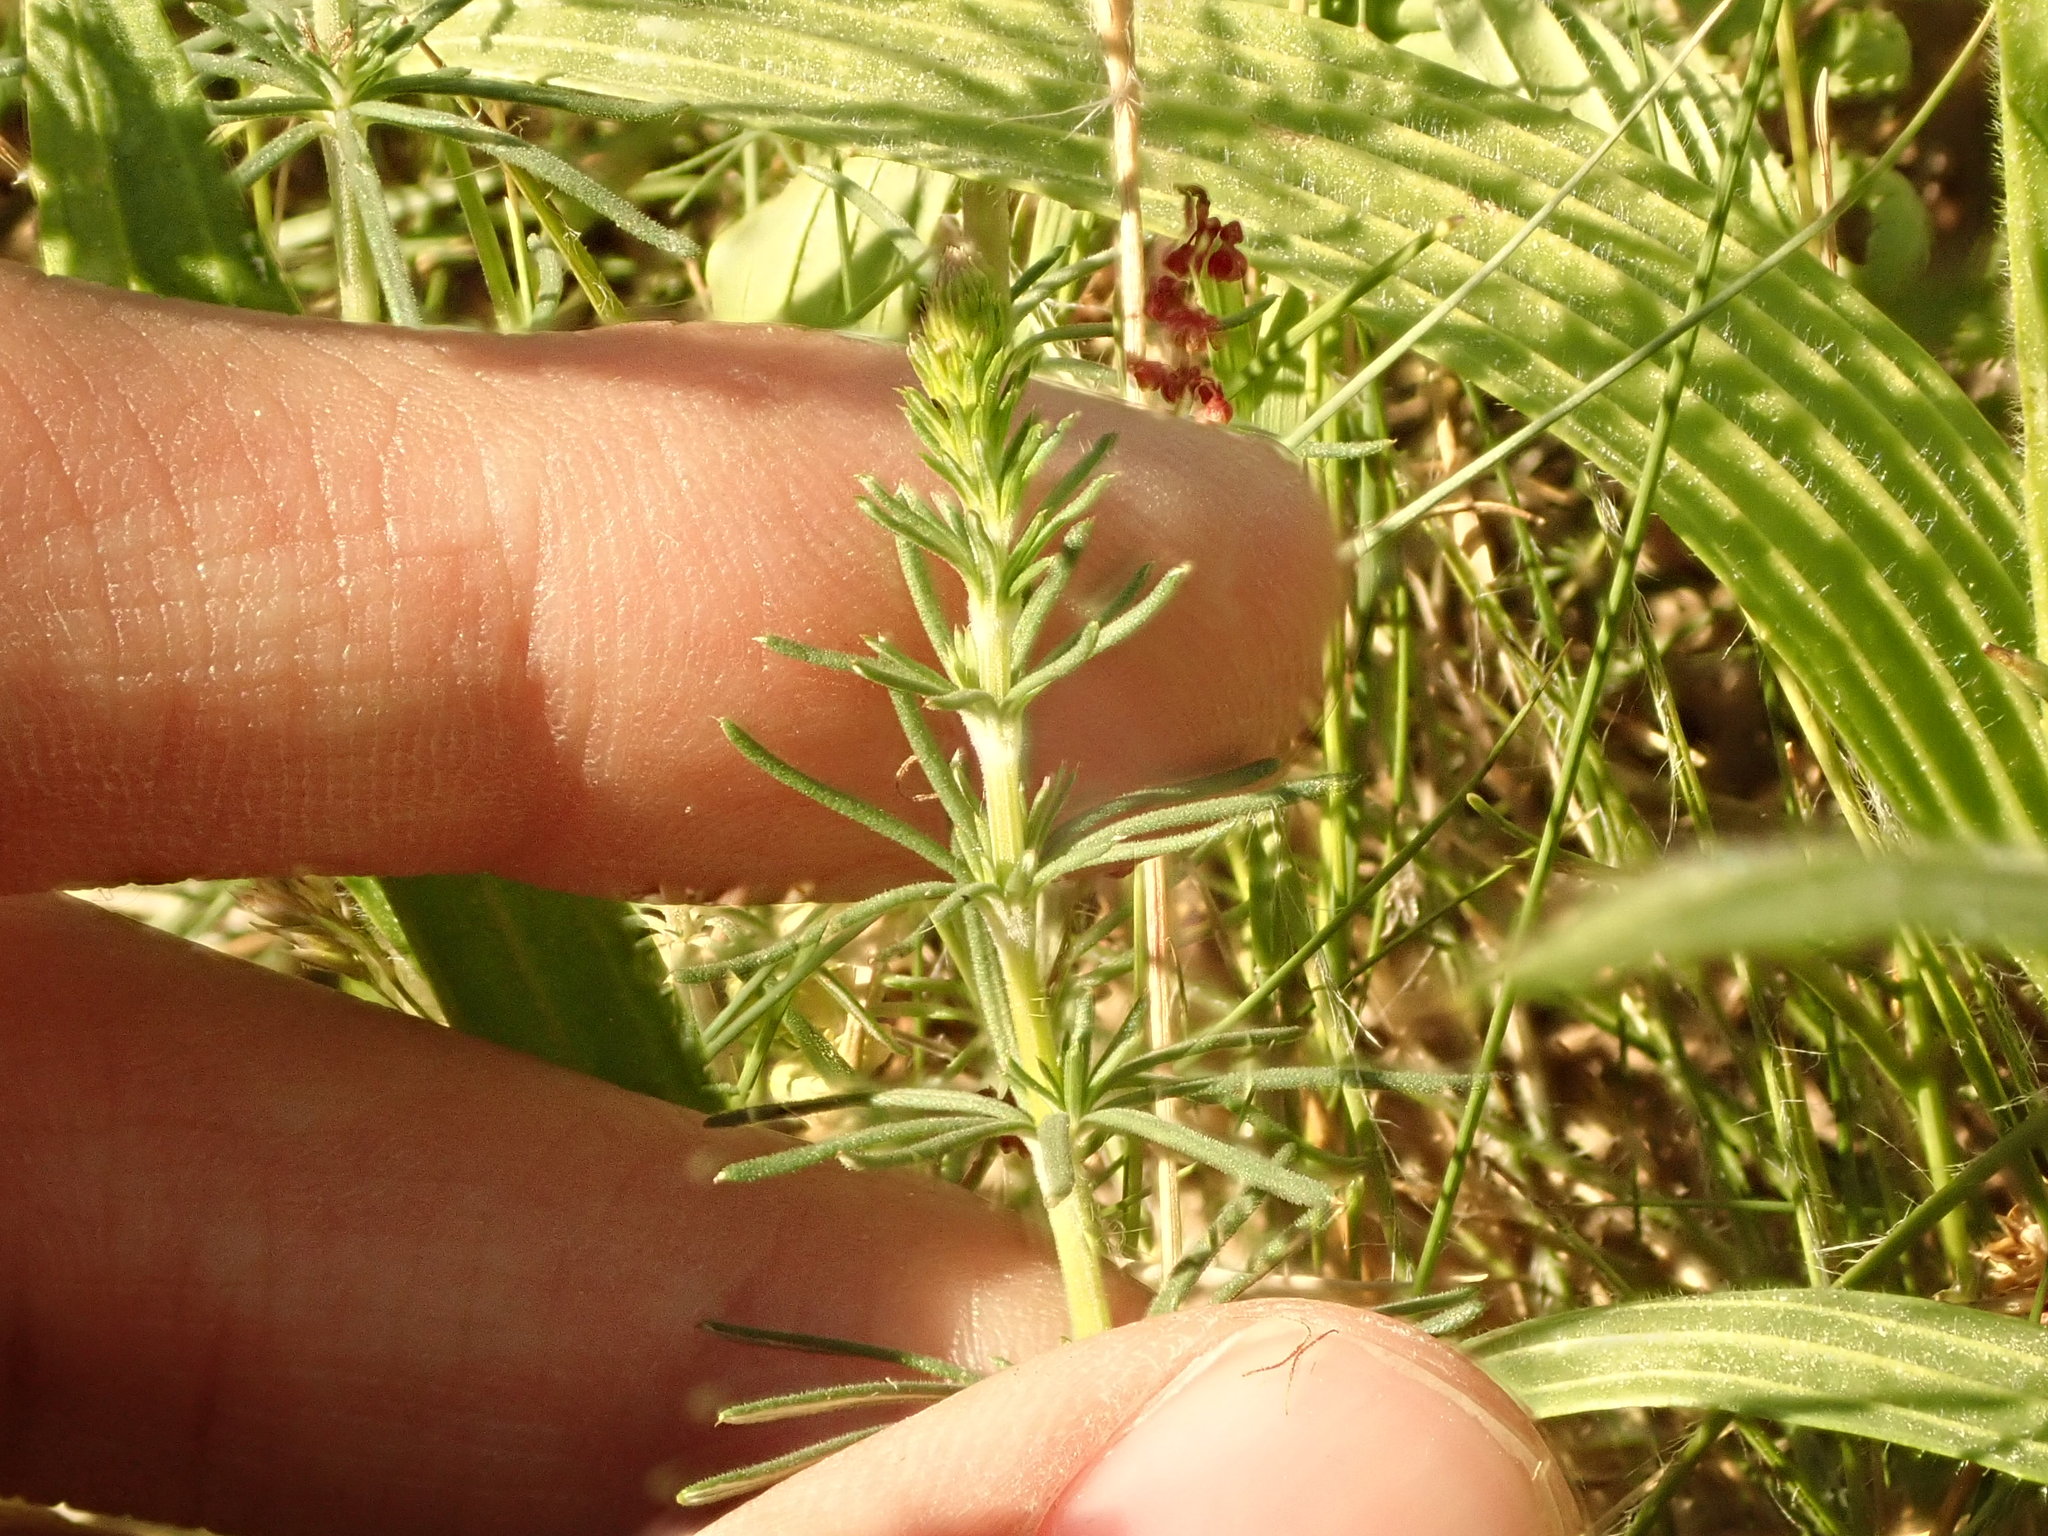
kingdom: Plantae
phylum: Tracheophyta
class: Magnoliopsida
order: Gentianales
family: Rubiaceae
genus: Galium
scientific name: Galium verum
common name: Lady's bedstraw
